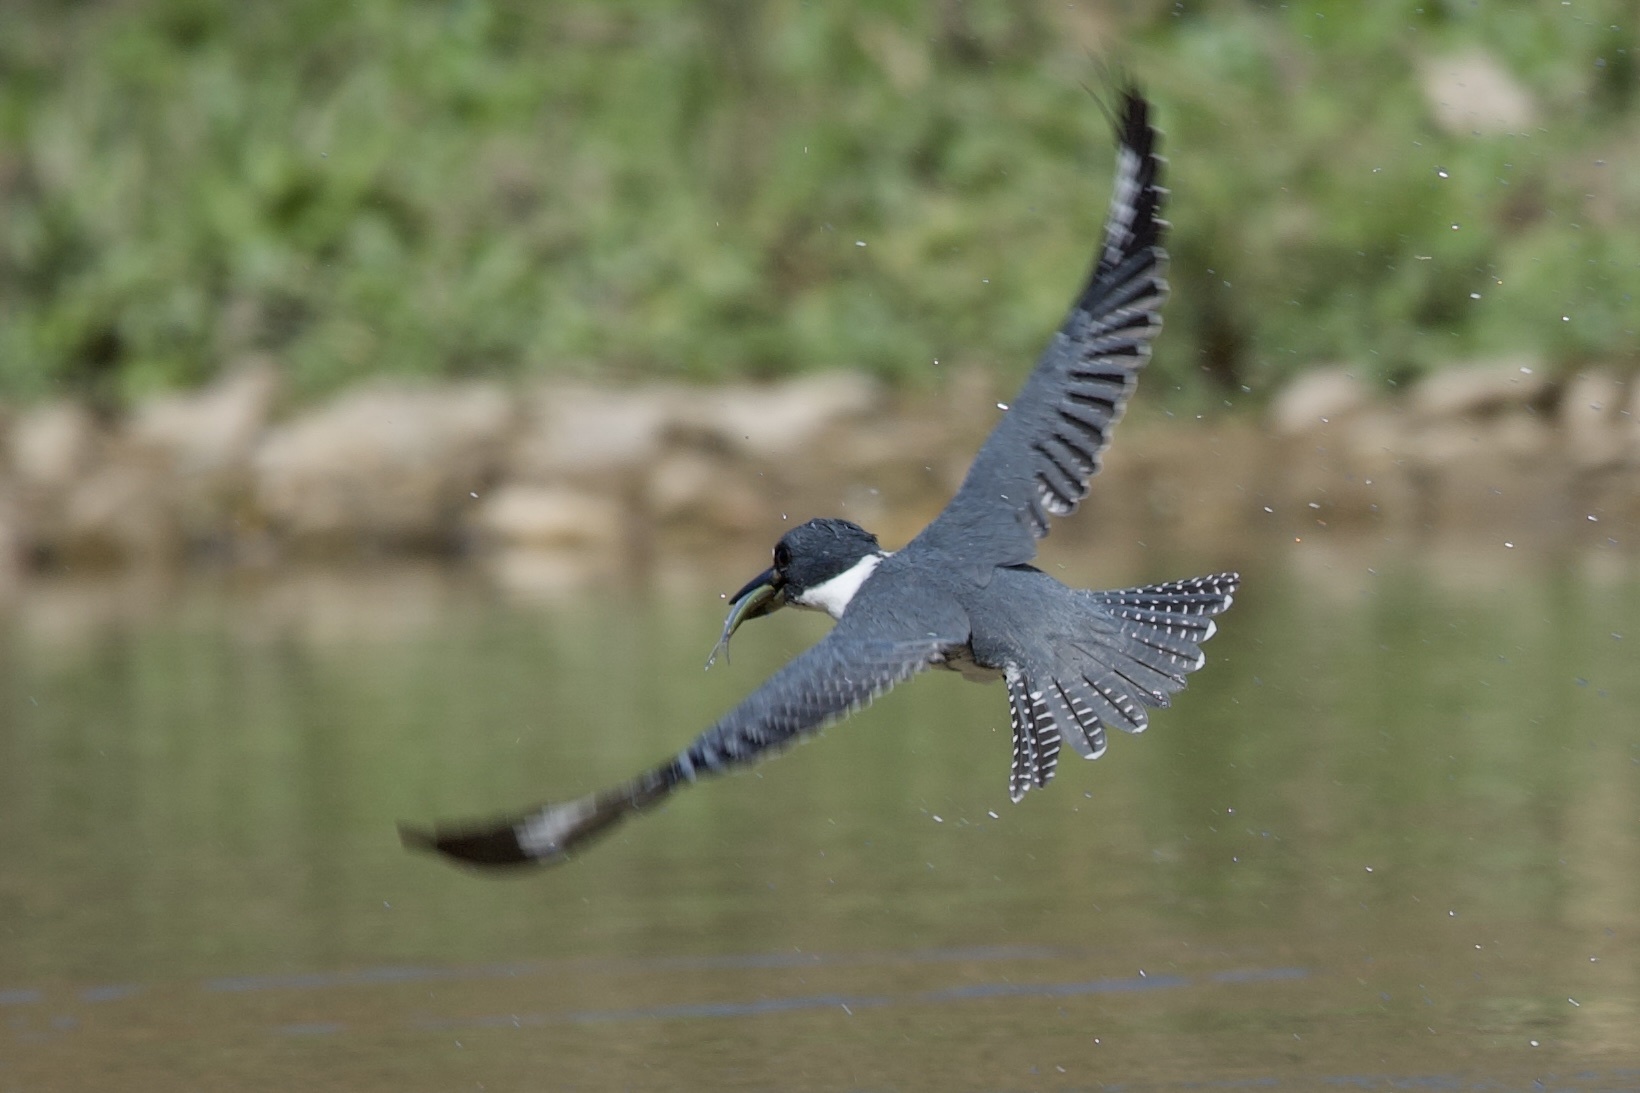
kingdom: Animalia
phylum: Chordata
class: Aves
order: Coraciiformes
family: Alcedinidae
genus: Megaceryle
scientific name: Megaceryle alcyon
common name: Belted kingfisher
